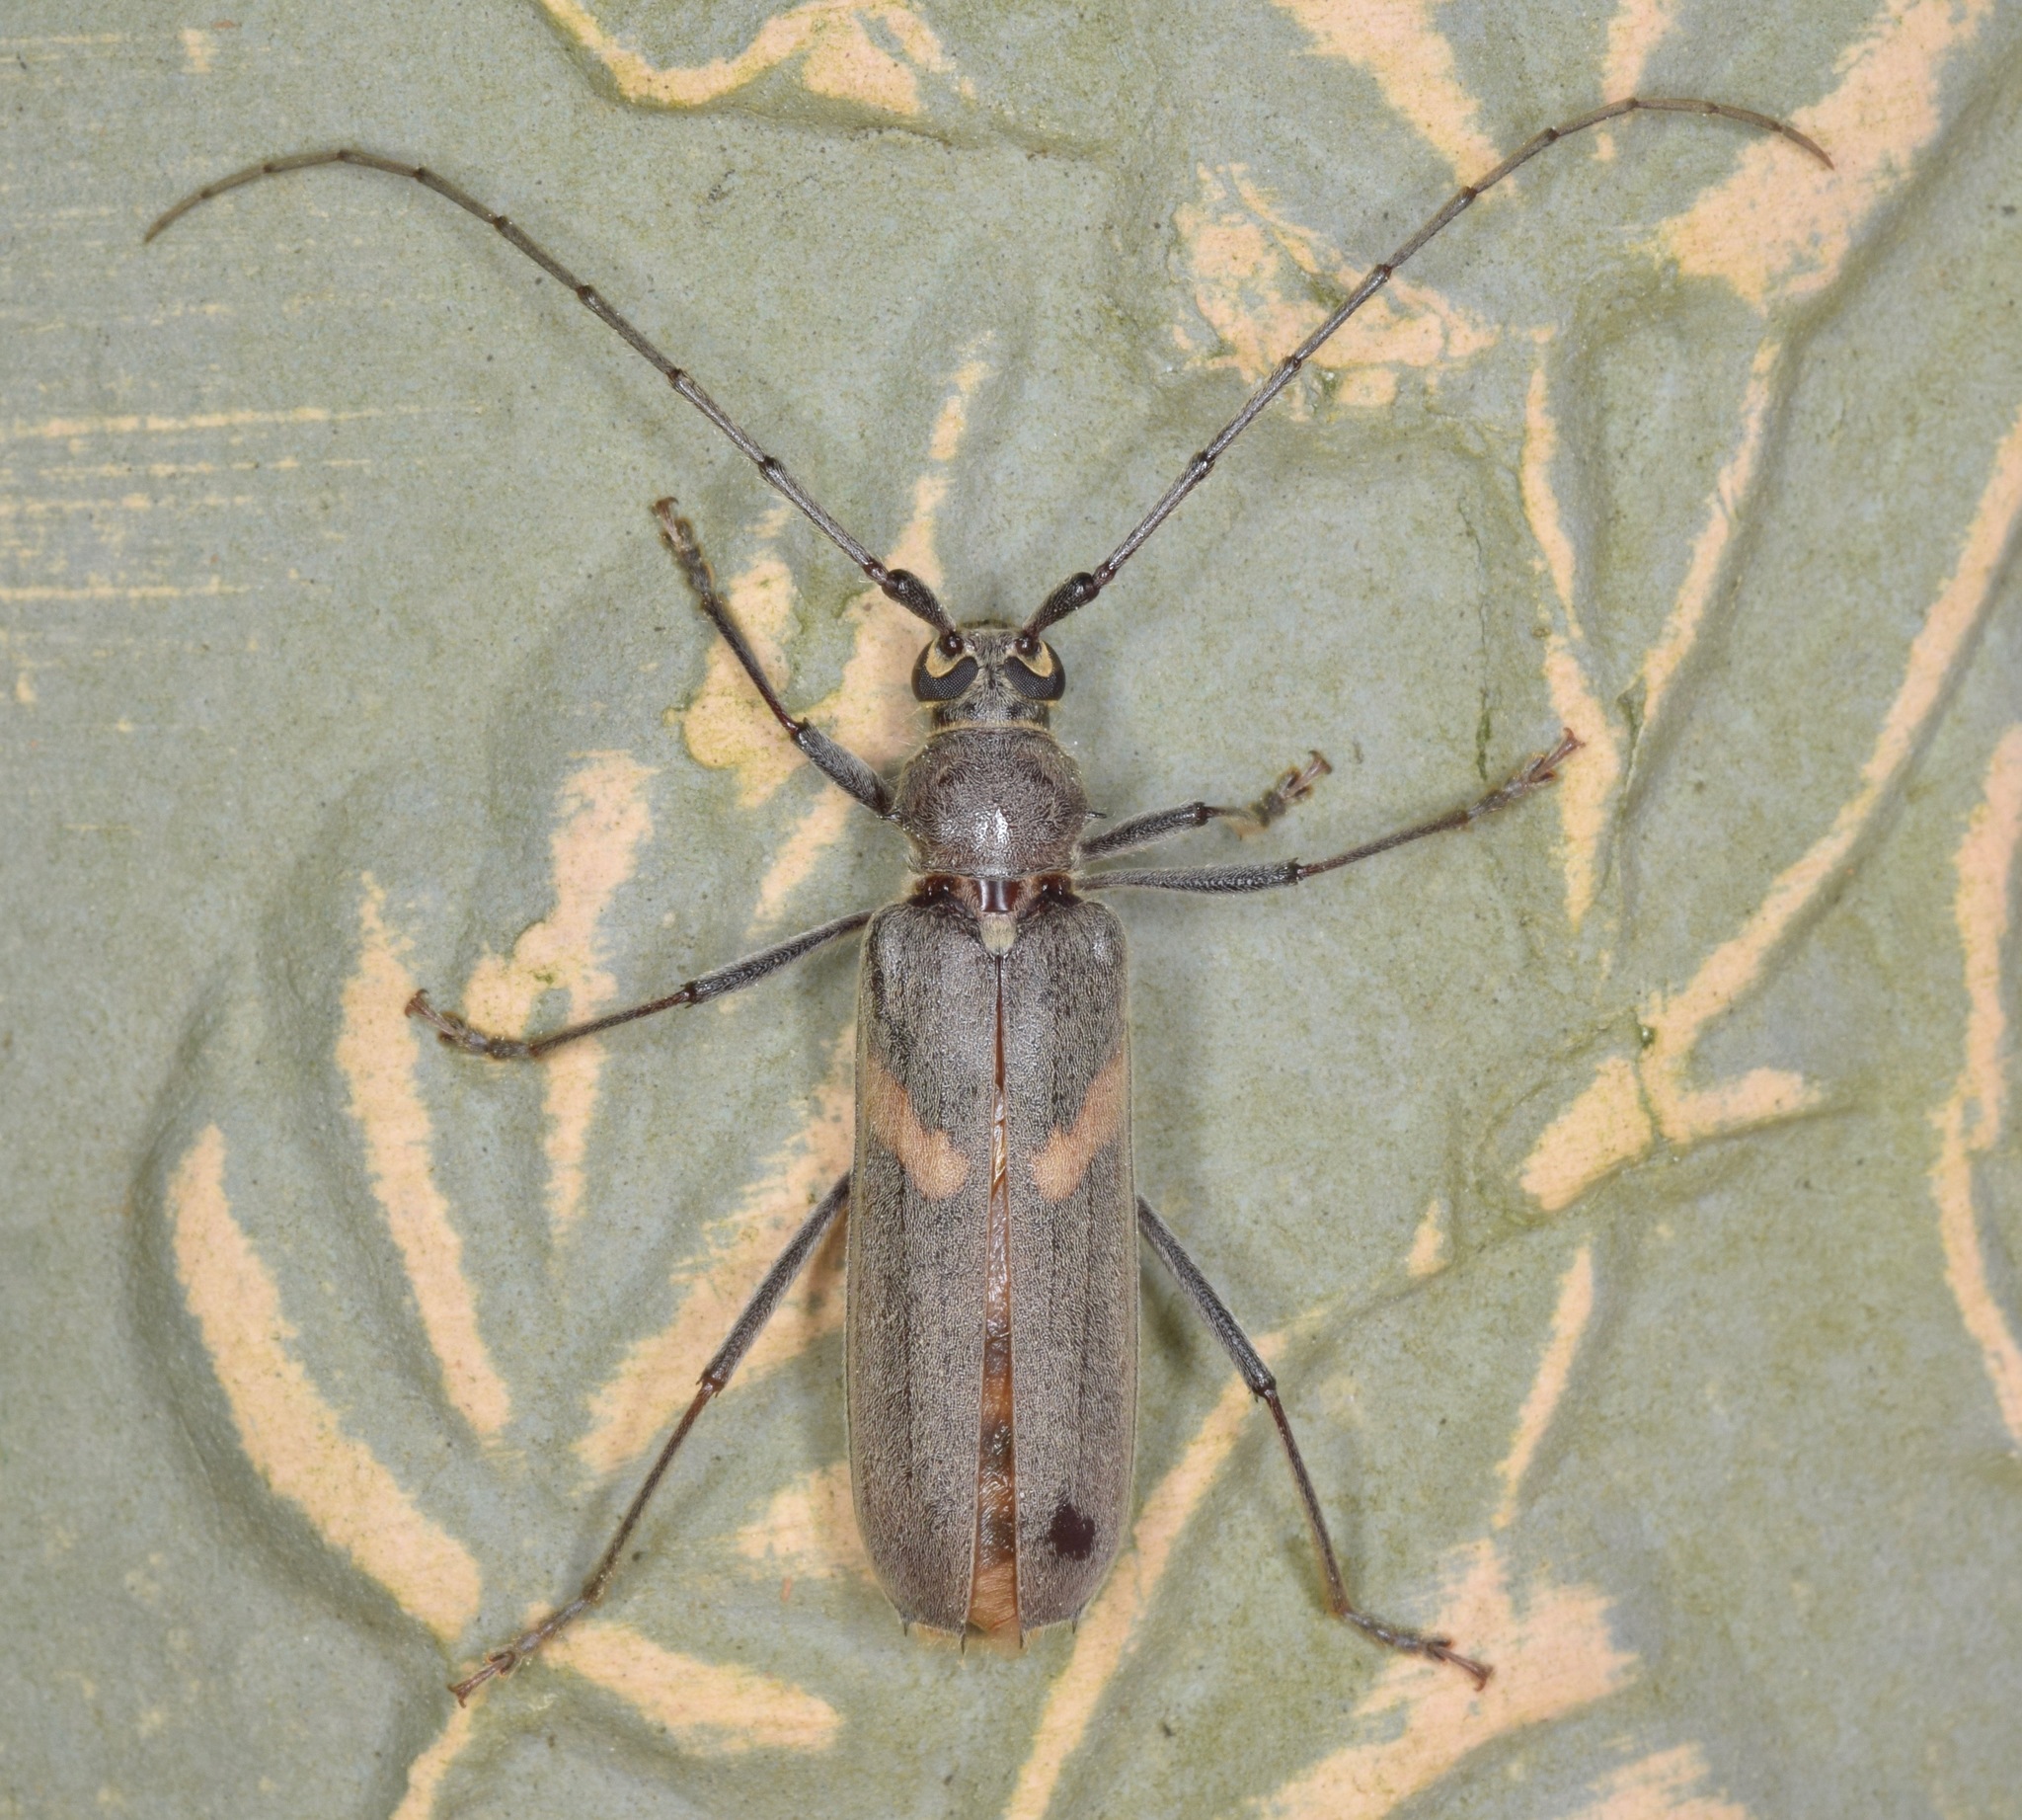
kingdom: Animalia
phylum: Arthropoda
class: Insecta
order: Coleoptera
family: Cerambycidae
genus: Knulliana
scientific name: Knulliana cincta
